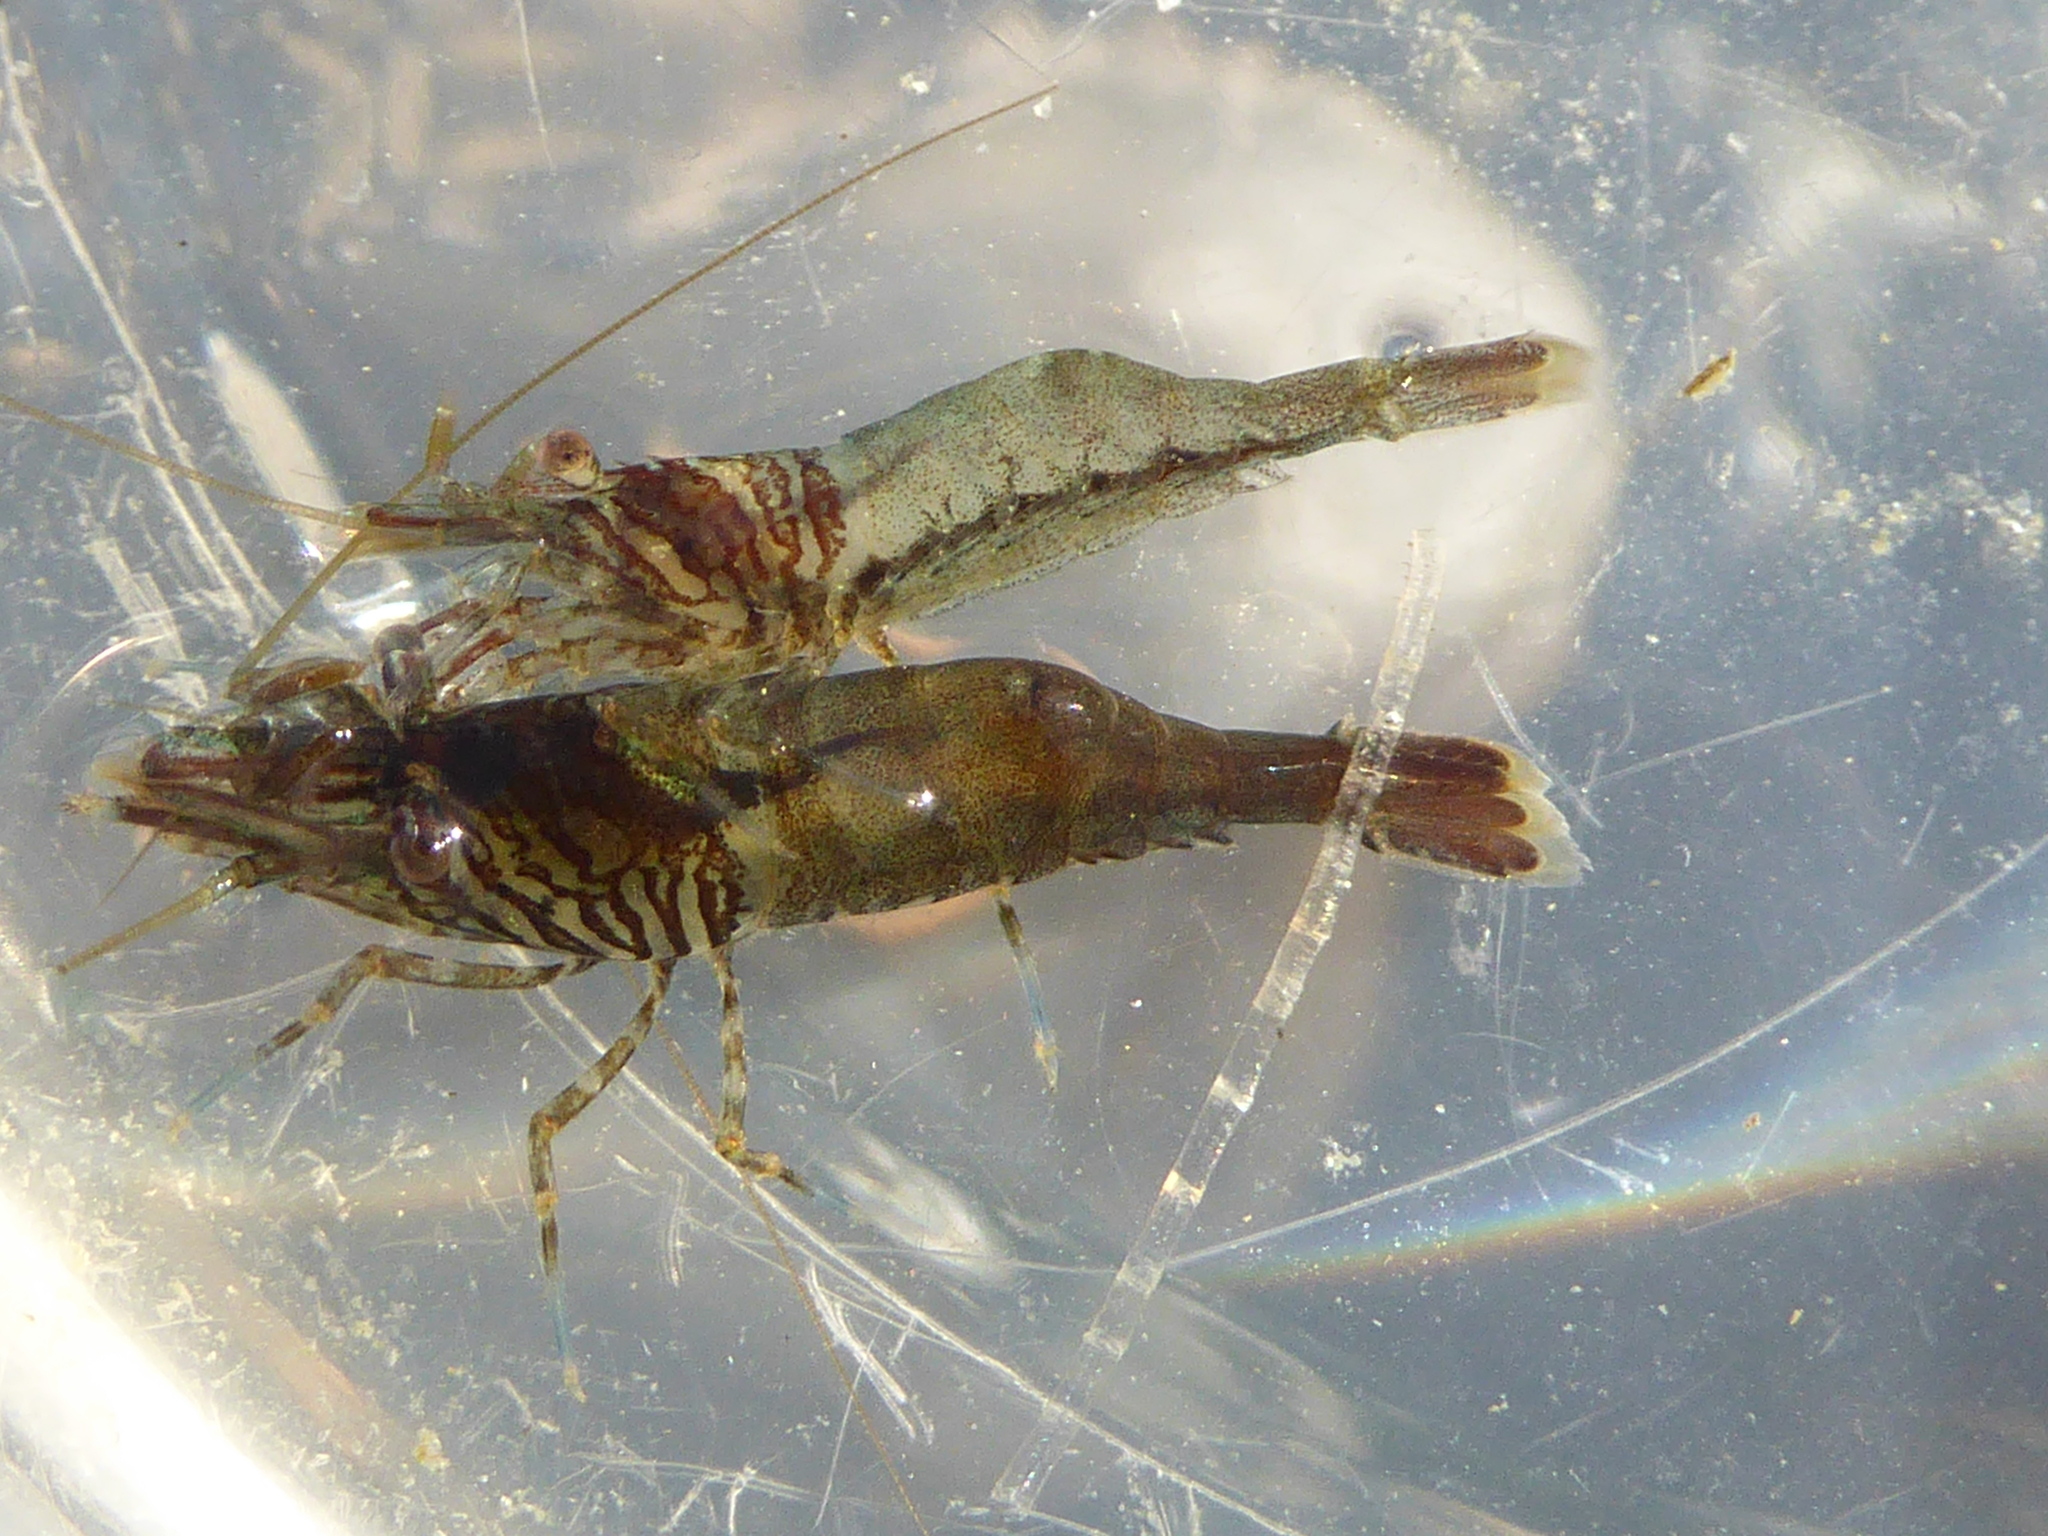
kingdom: Animalia
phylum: Arthropoda
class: Malacostraca
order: Decapoda
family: Thoridae
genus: Heptacarpus
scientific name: Heptacarpus sitchensis
